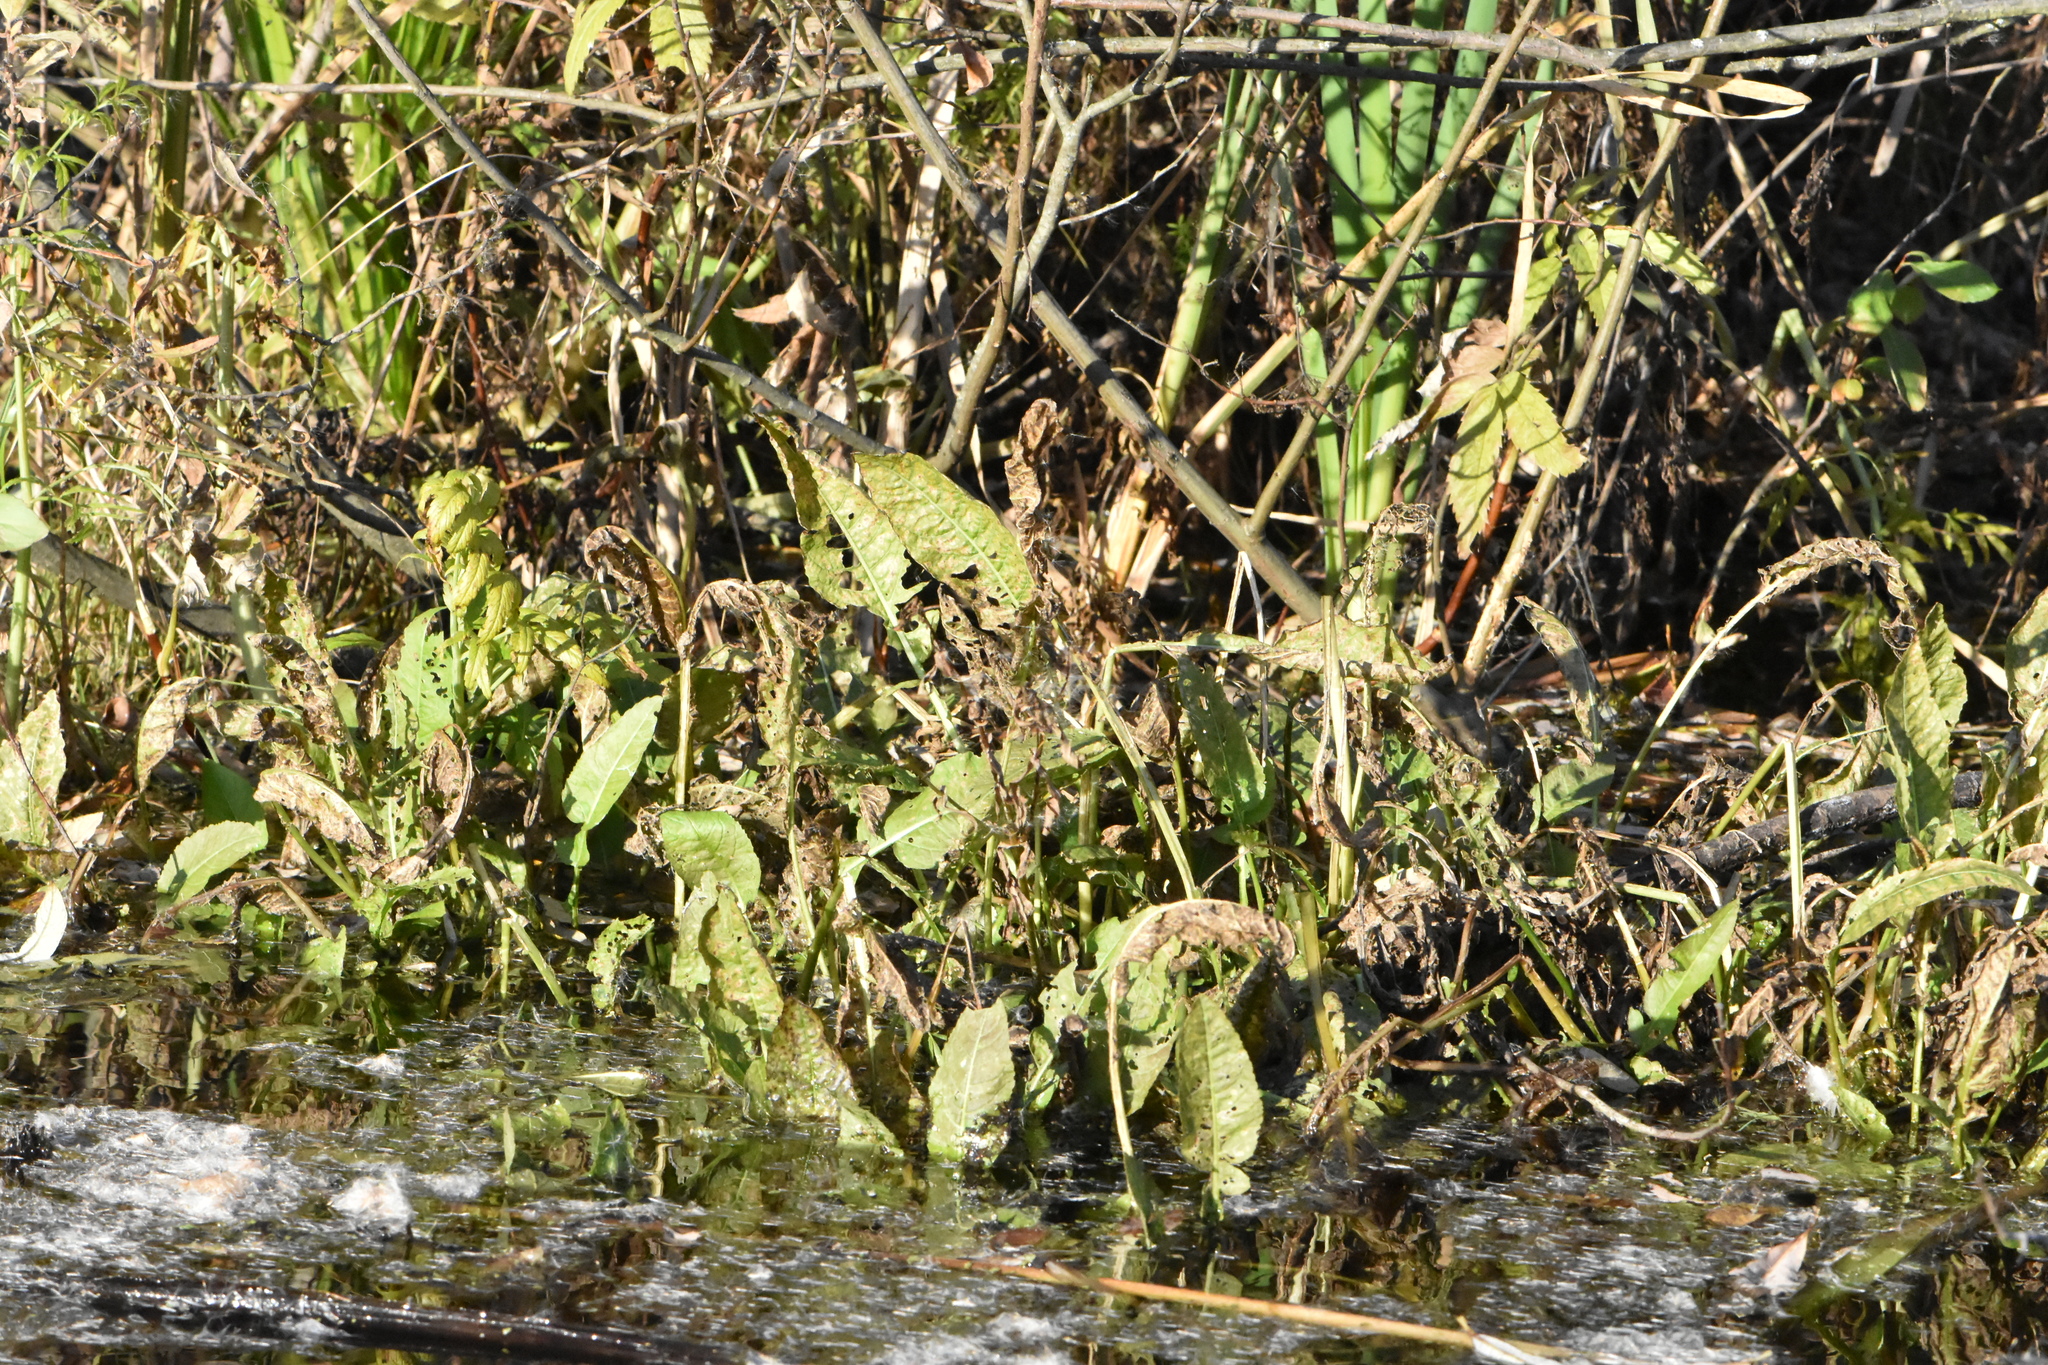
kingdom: Plantae
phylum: Tracheophyta
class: Magnoliopsida
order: Brassicales
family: Brassicaceae
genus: Rorippa
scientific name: Rorippa amphibia
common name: Great yellow-cress
